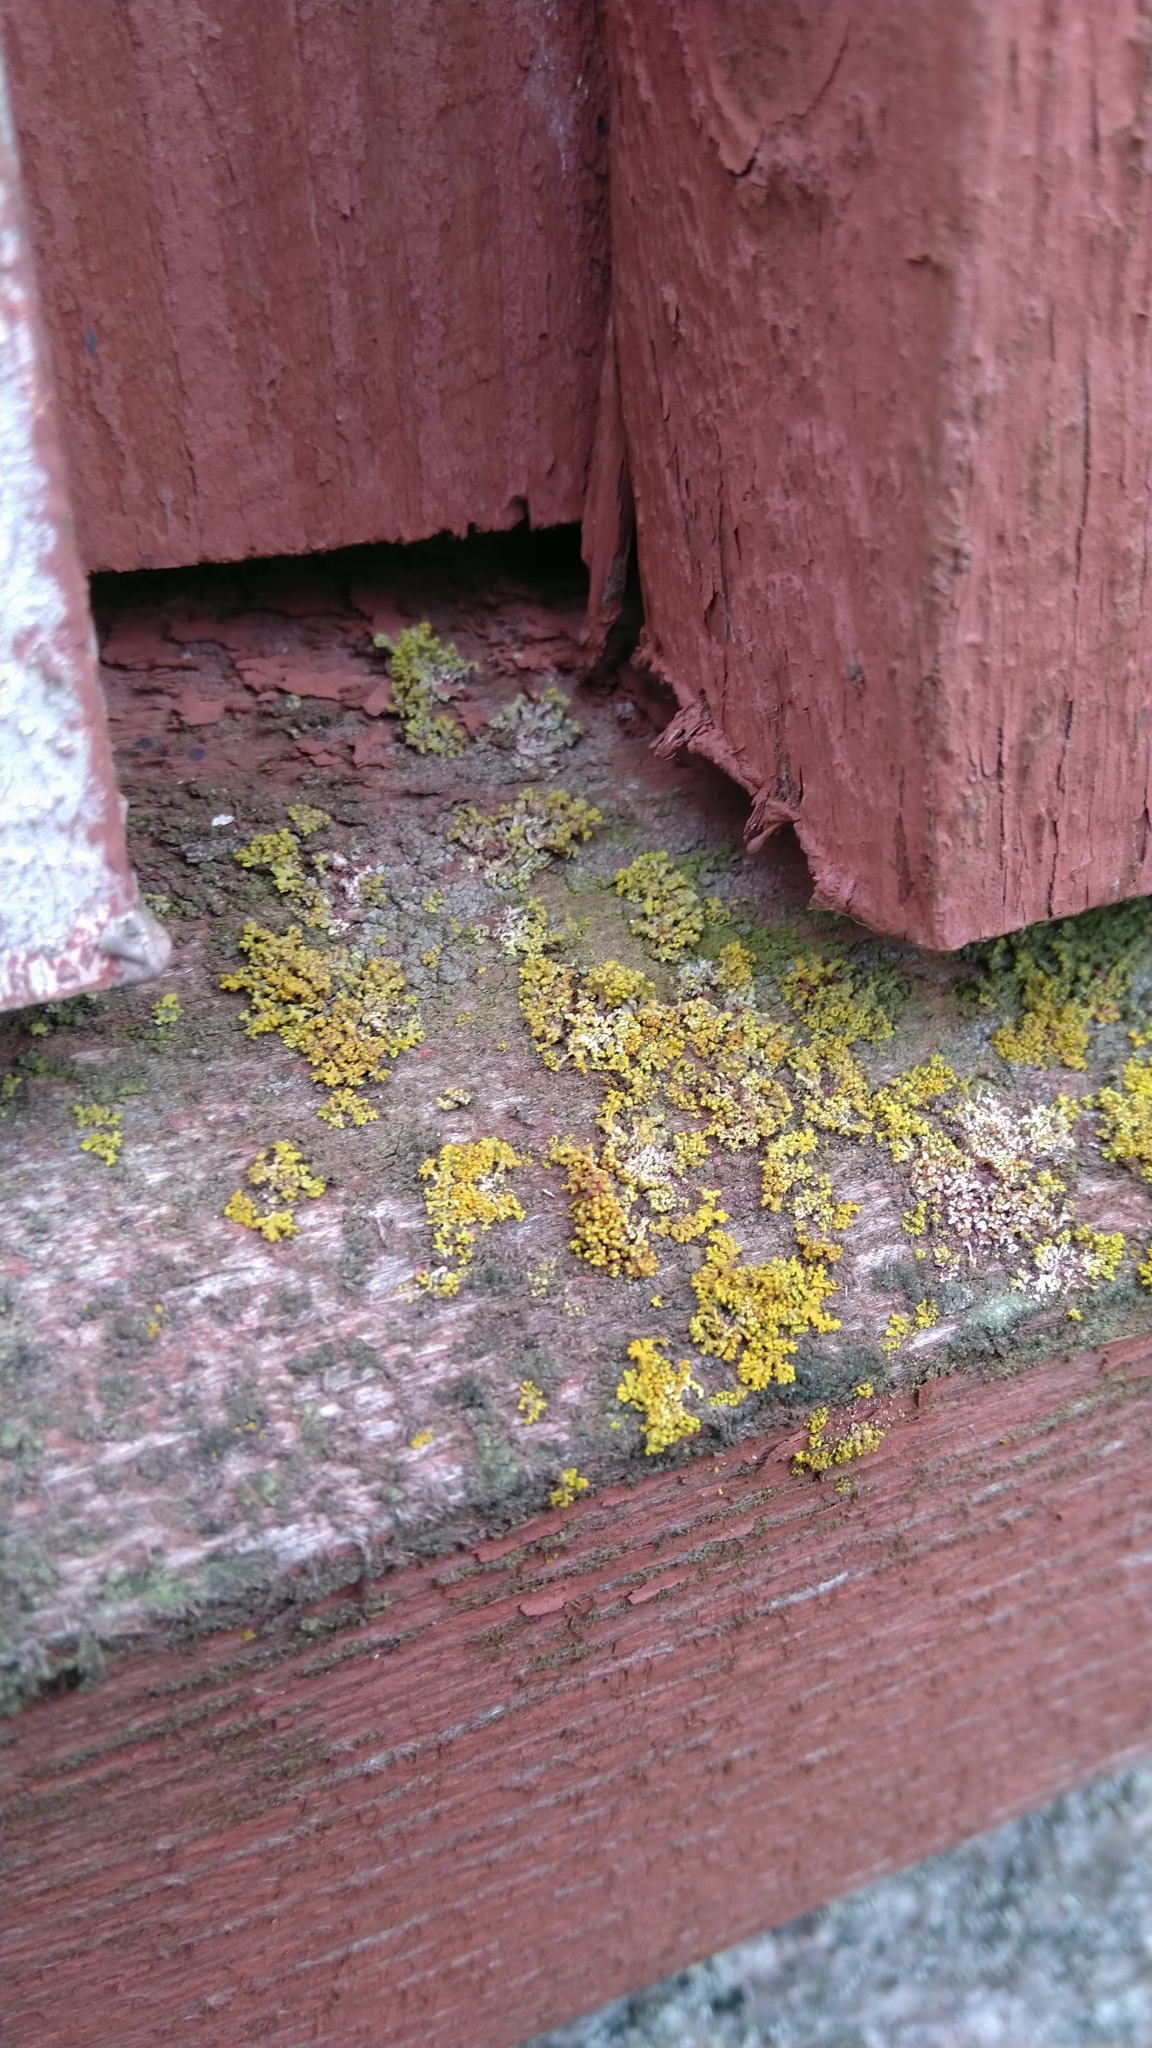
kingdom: Fungi
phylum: Ascomycota
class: Lecanoromycetes
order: Teloschistales
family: Teloschistaceae
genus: Polycauliona
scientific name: Polycauliona polycarpa
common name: Pin-cushion sunburst lichen
